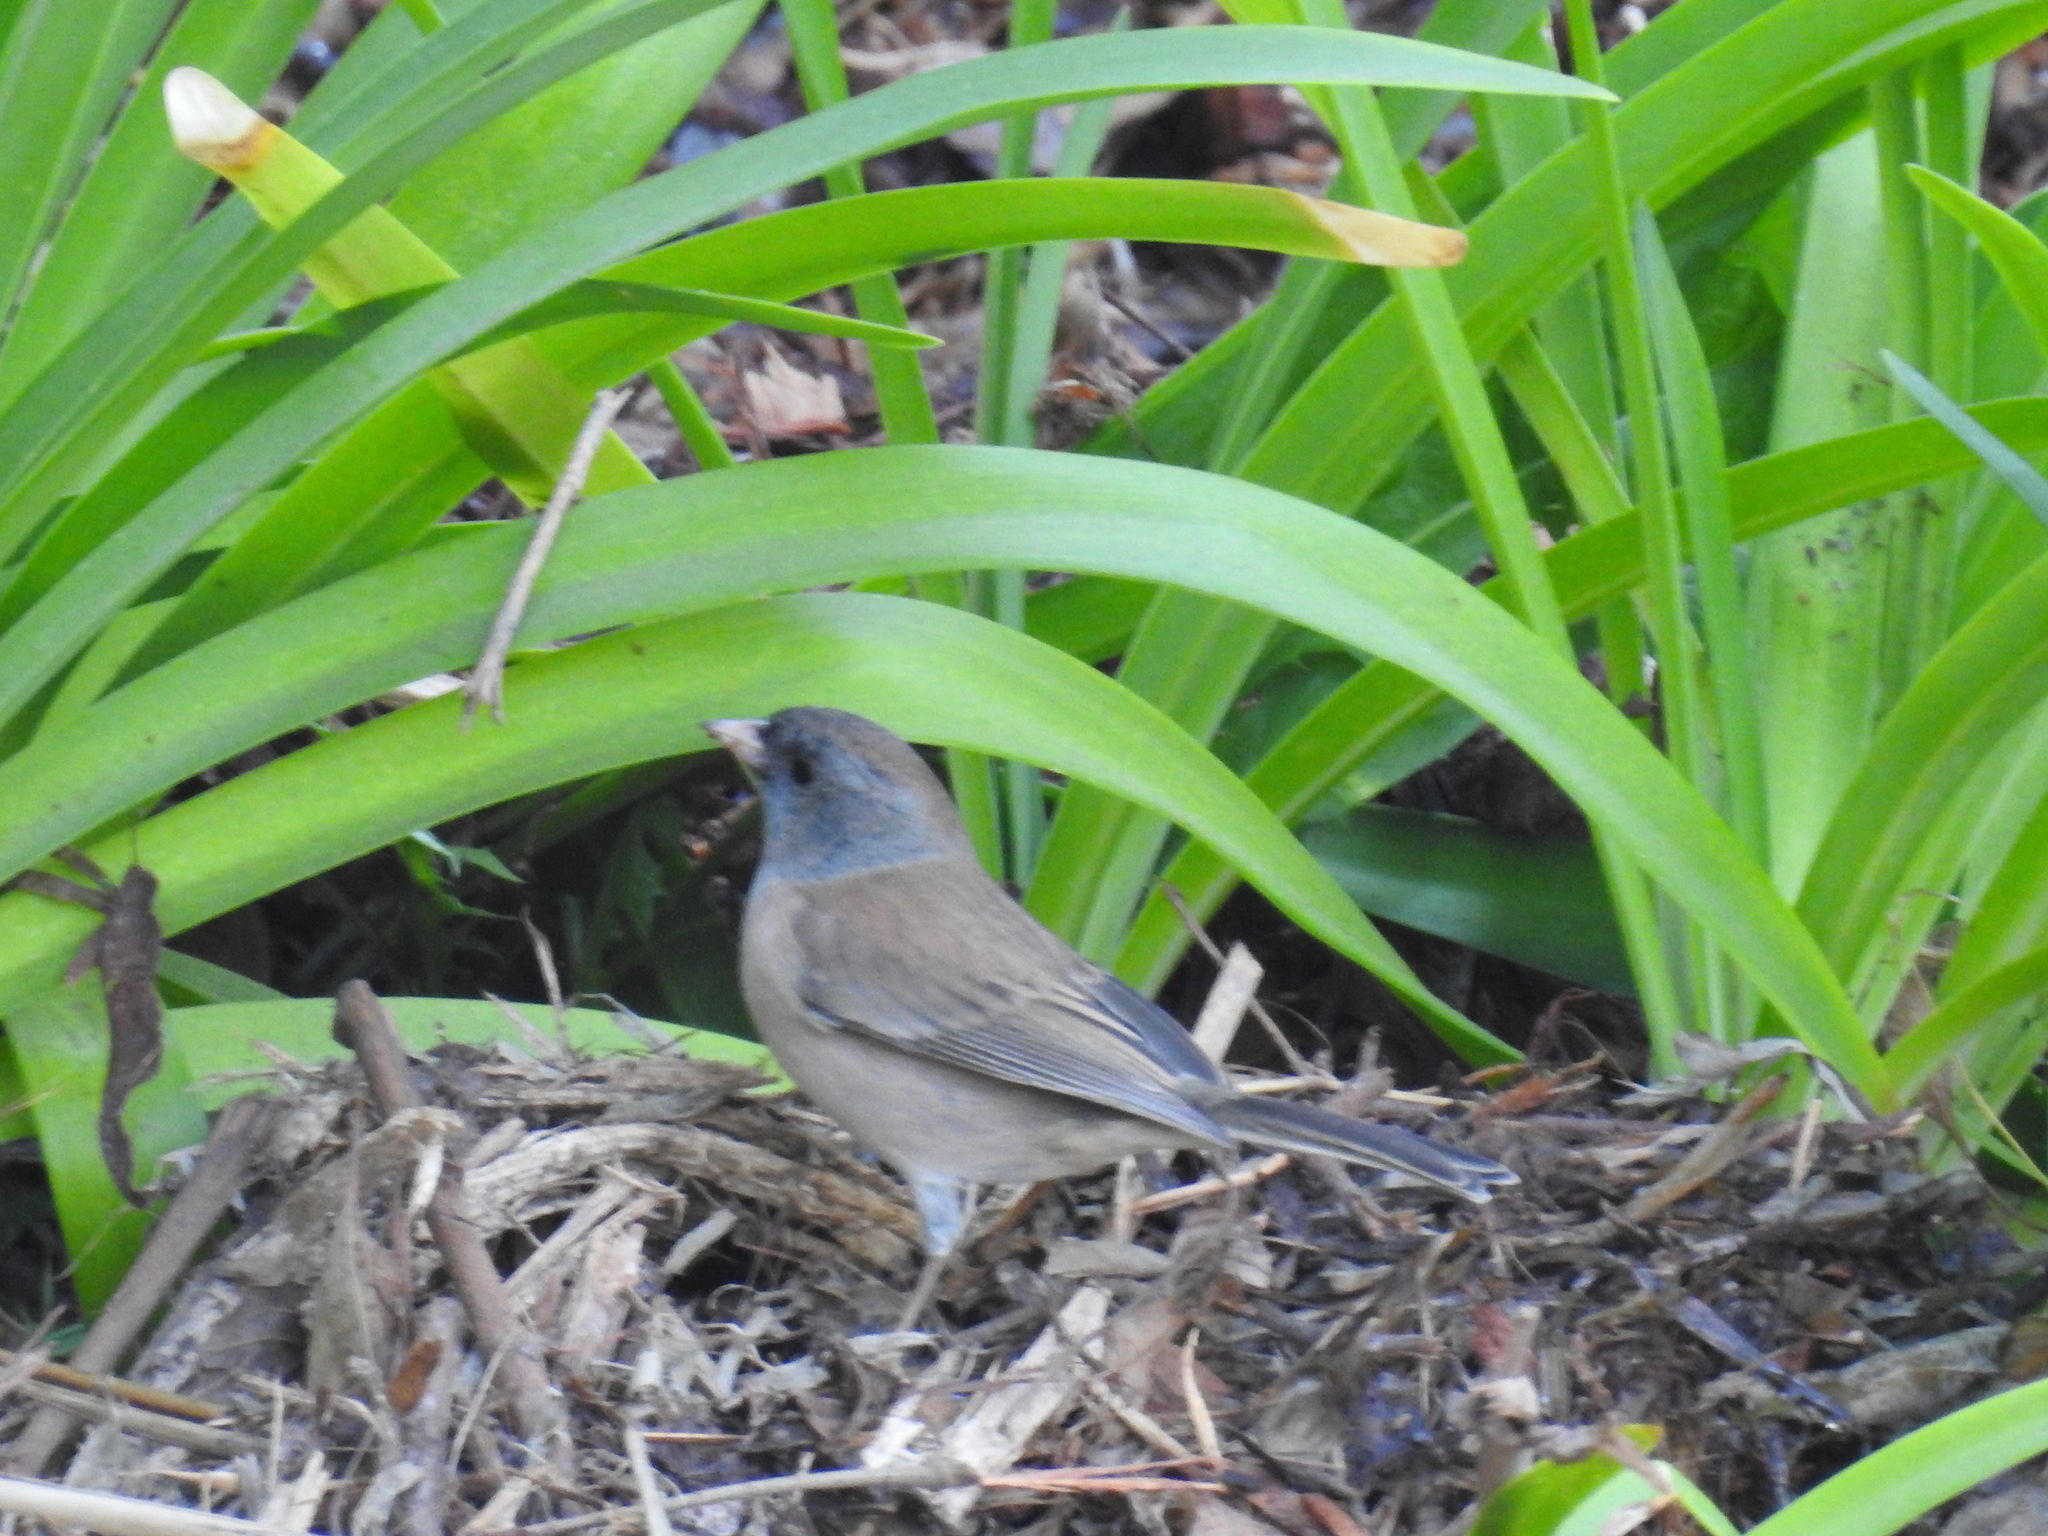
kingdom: Animalia
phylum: Chordata
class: Aves
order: Passeriformes
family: Passerellidae
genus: Junco
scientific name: Junco hyemalis
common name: Dark-eyed junco
